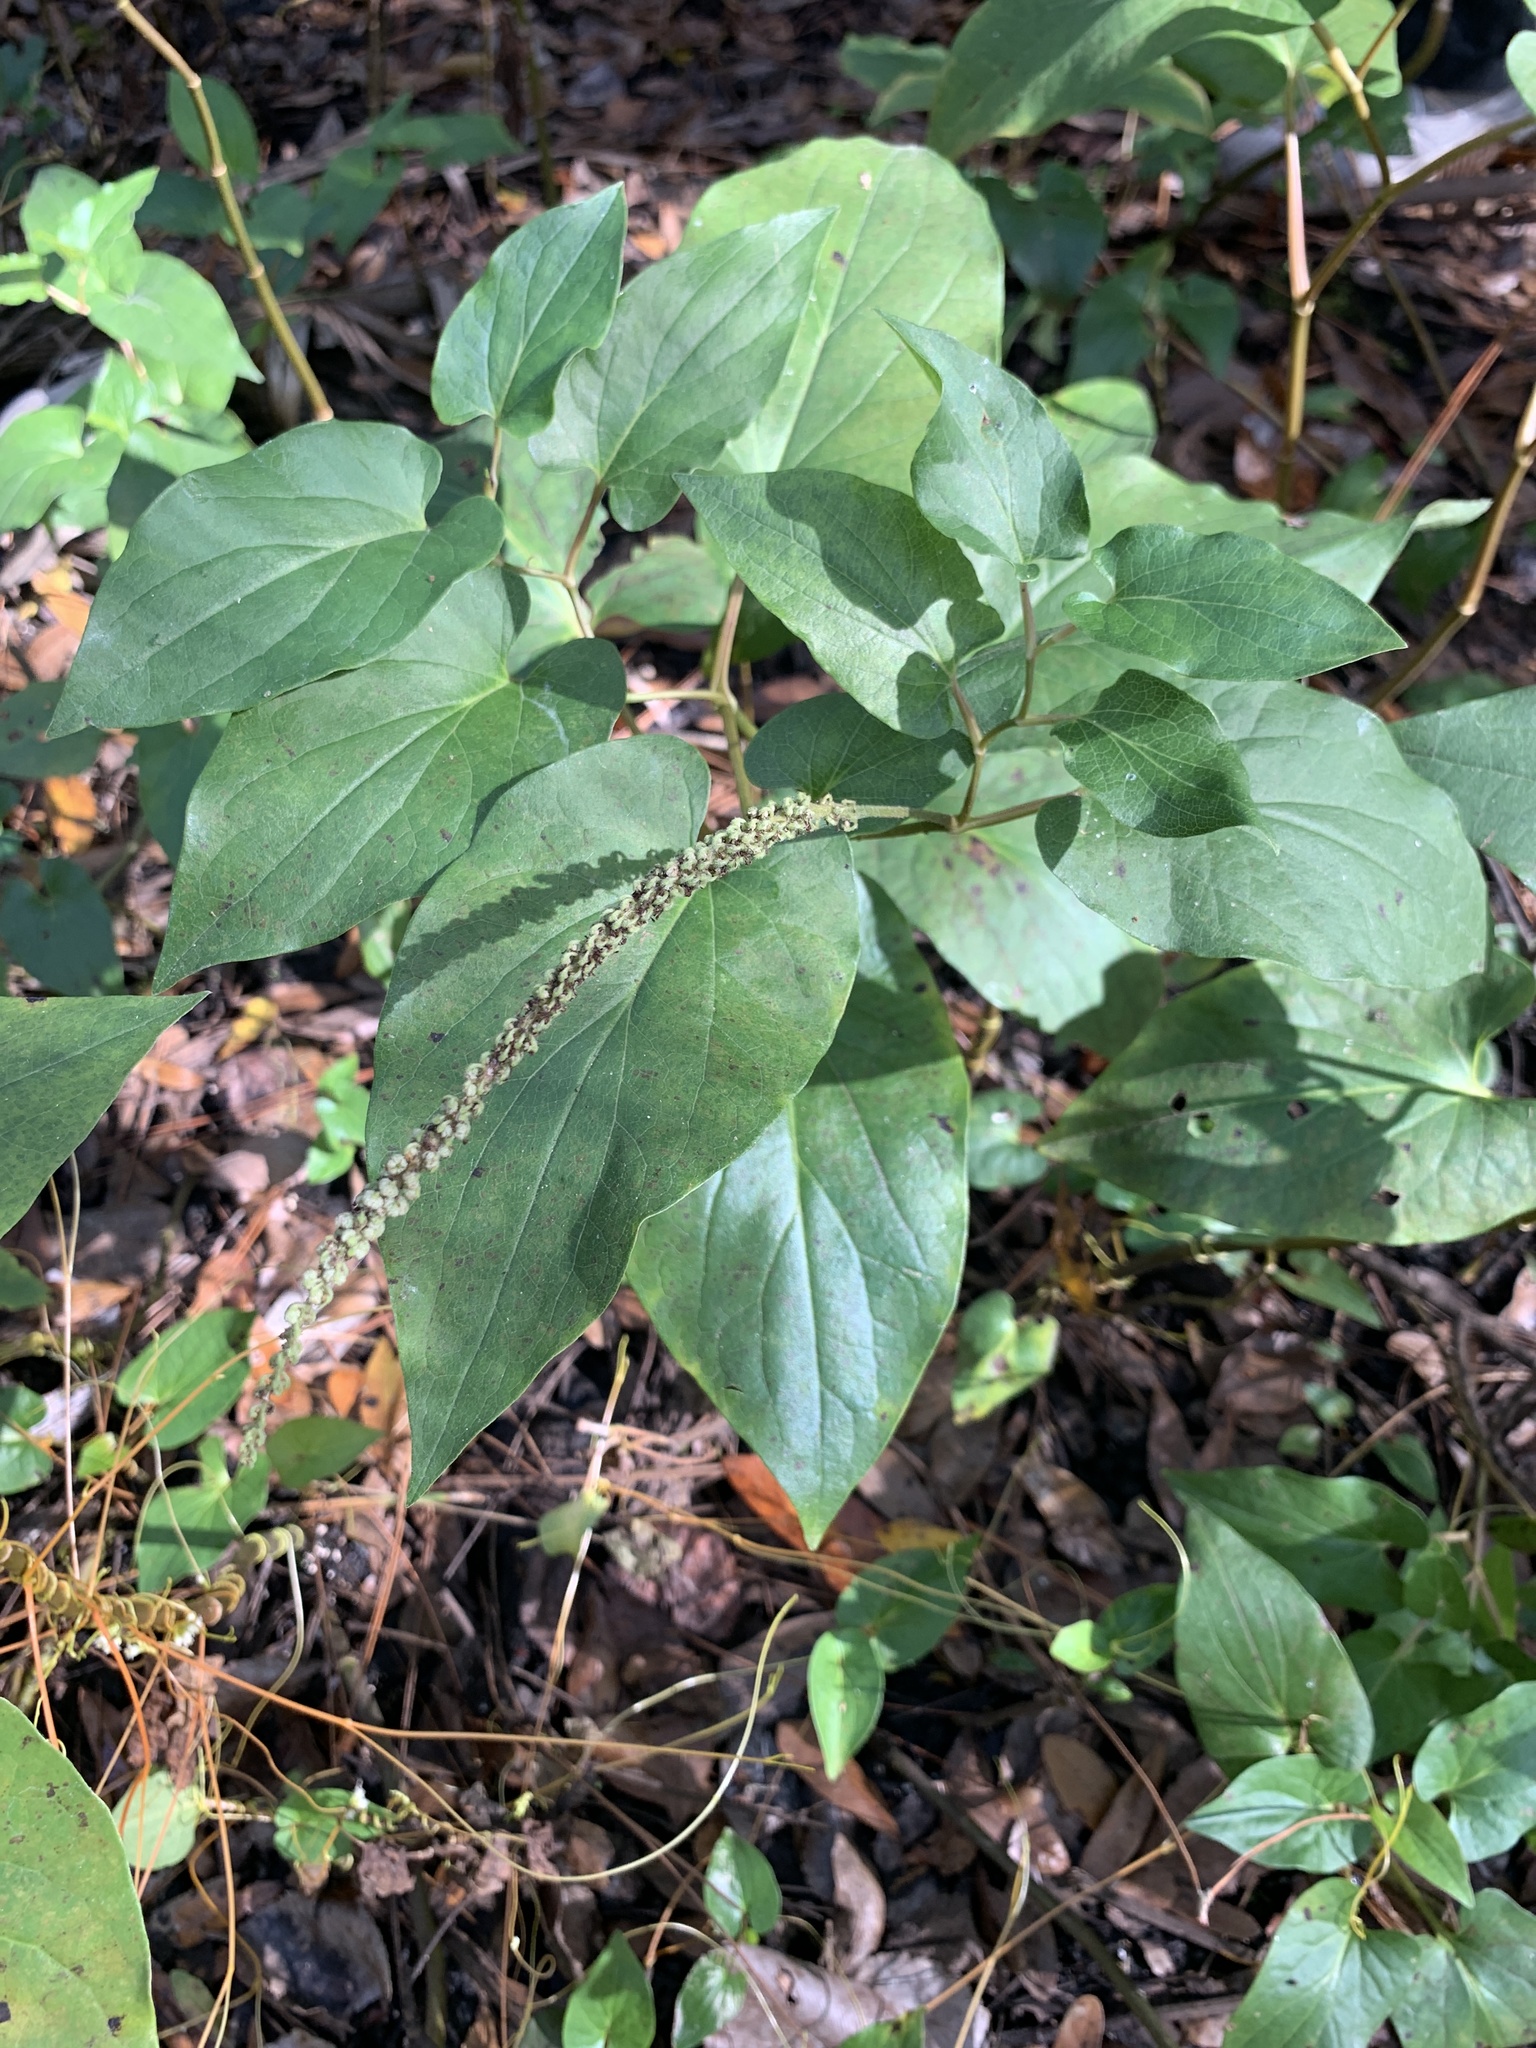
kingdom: Plantae
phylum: Tracheophyta
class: Magnoliopsida
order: Piperales
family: Saururaceae
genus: Saururus
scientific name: Saururus cernuus
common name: Lizard's-tail
